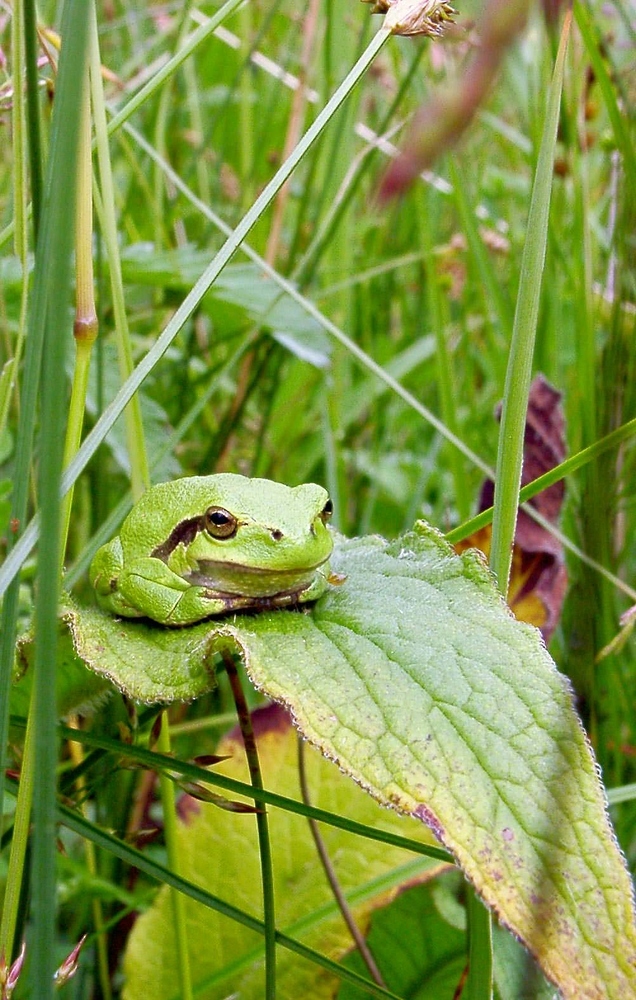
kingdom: Animalia
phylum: Chordata
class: Amphibia
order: Anura
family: Hylidae
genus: Hyla
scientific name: Hyla arborea
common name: Common tree frog
